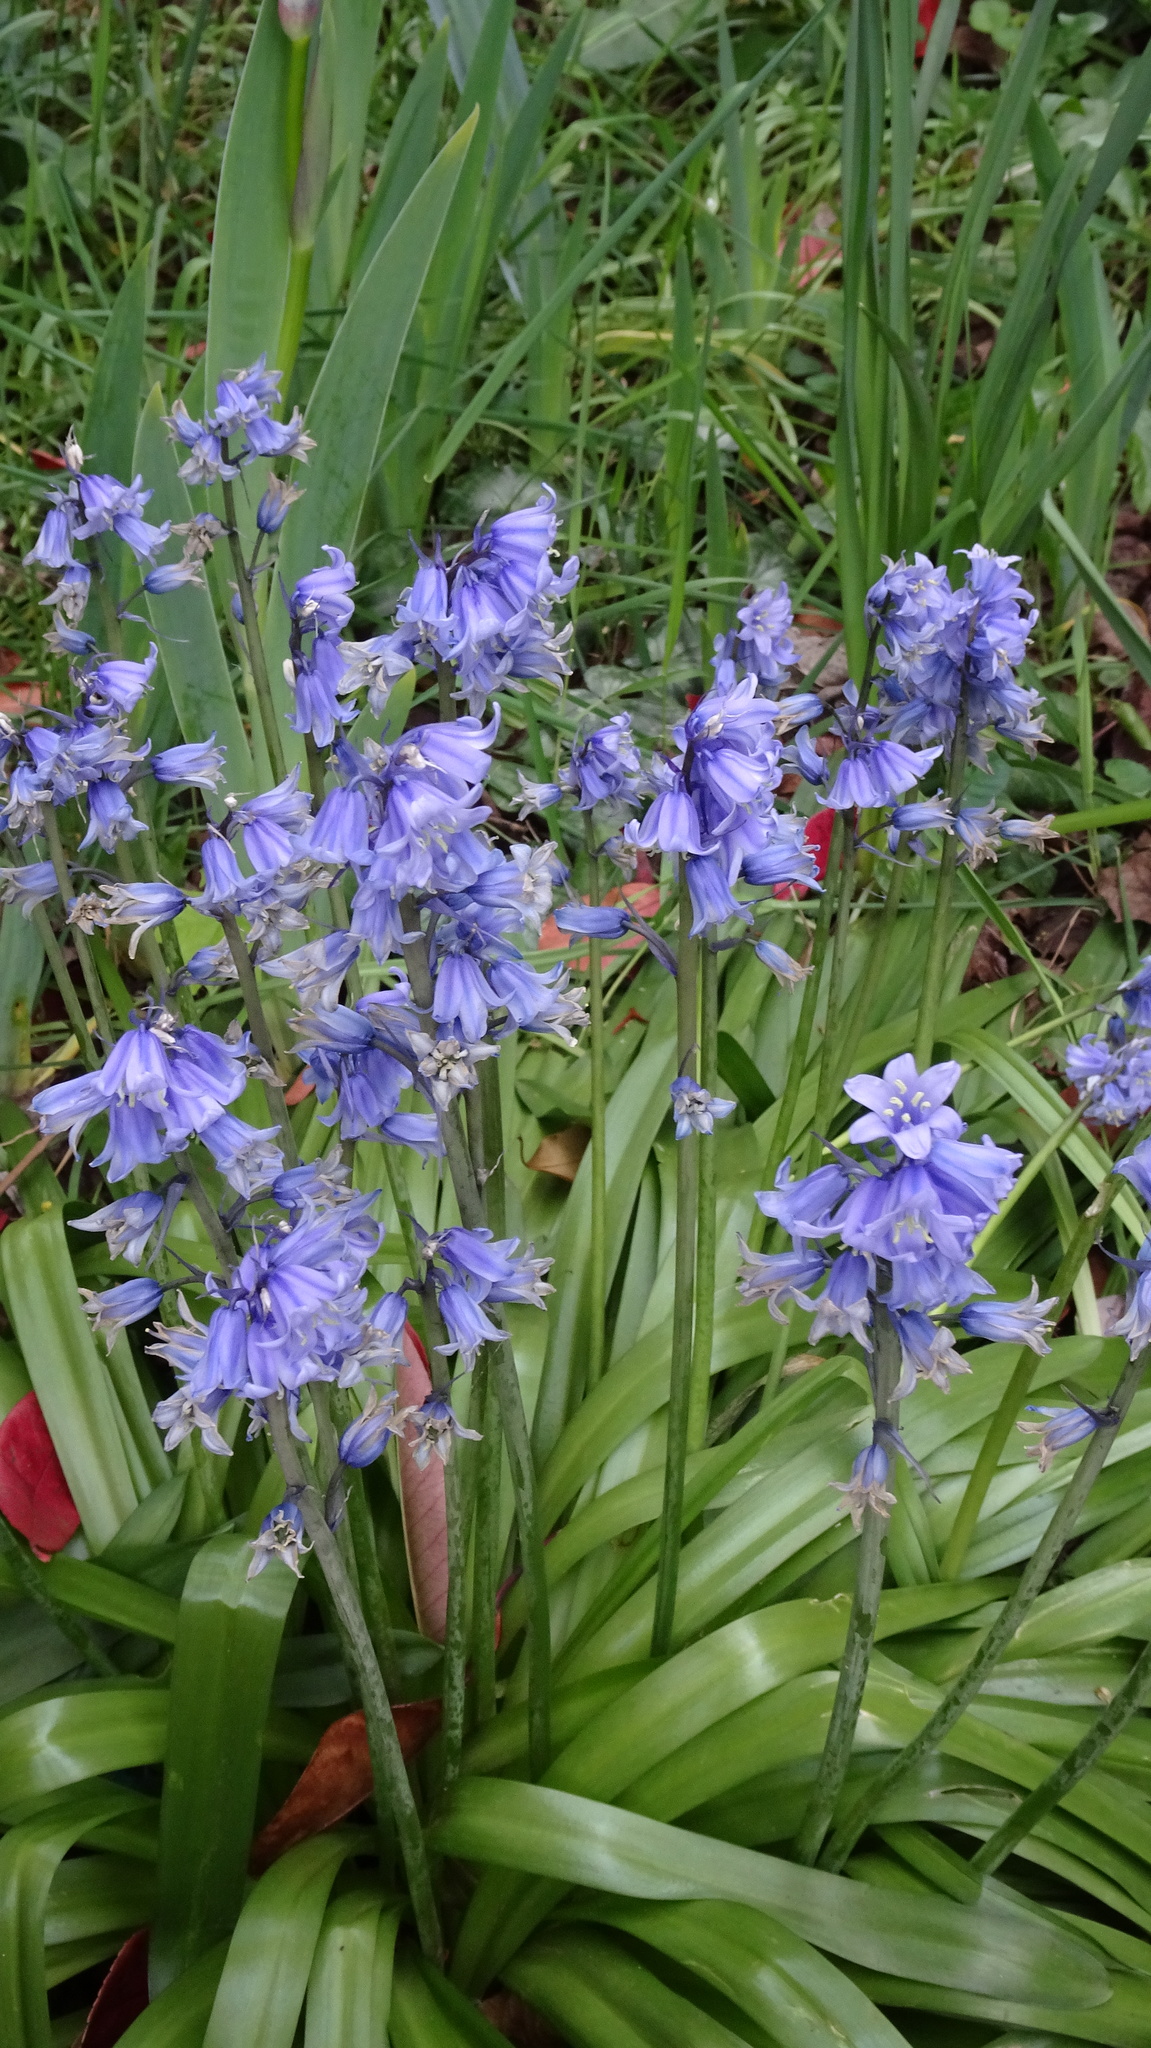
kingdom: Plantae
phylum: Tracheophyta
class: Liliopsida
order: Asparagales
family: Asparagaceae
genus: Hyacinthoides
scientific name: Hyacinthoides massartiana
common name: Hyacinthoides
